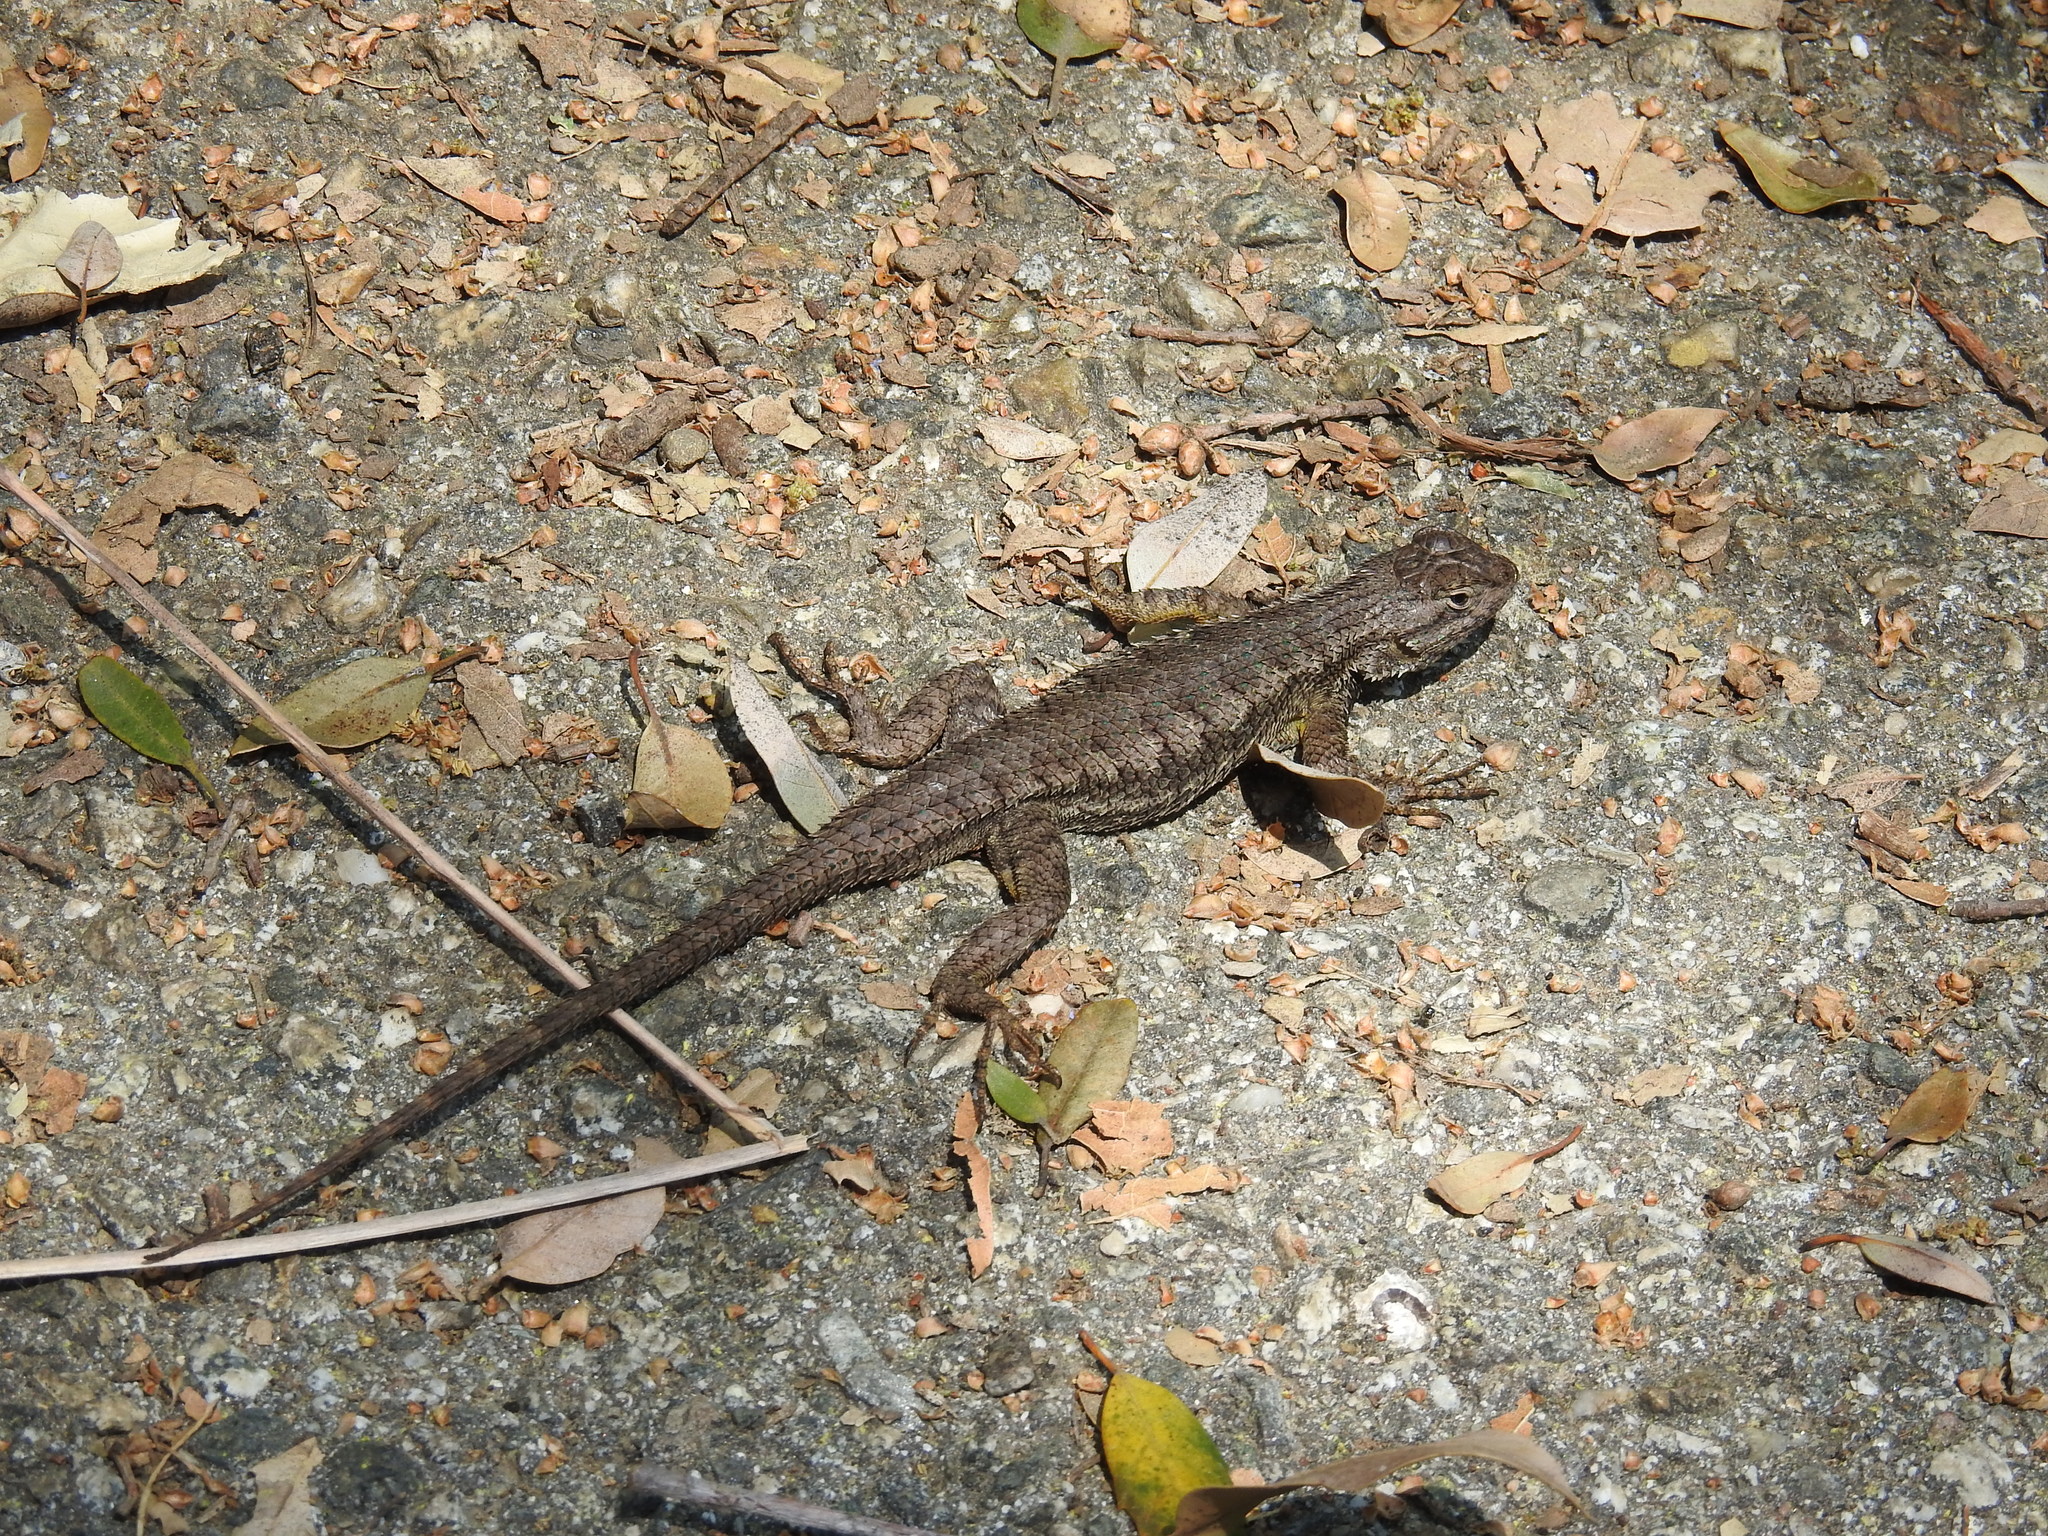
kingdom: Animalia
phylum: Chordata
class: Squamata
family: Phrynosomatidae
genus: Sceloporus
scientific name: Sceloporus occidentalis
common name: Western fence lizard
